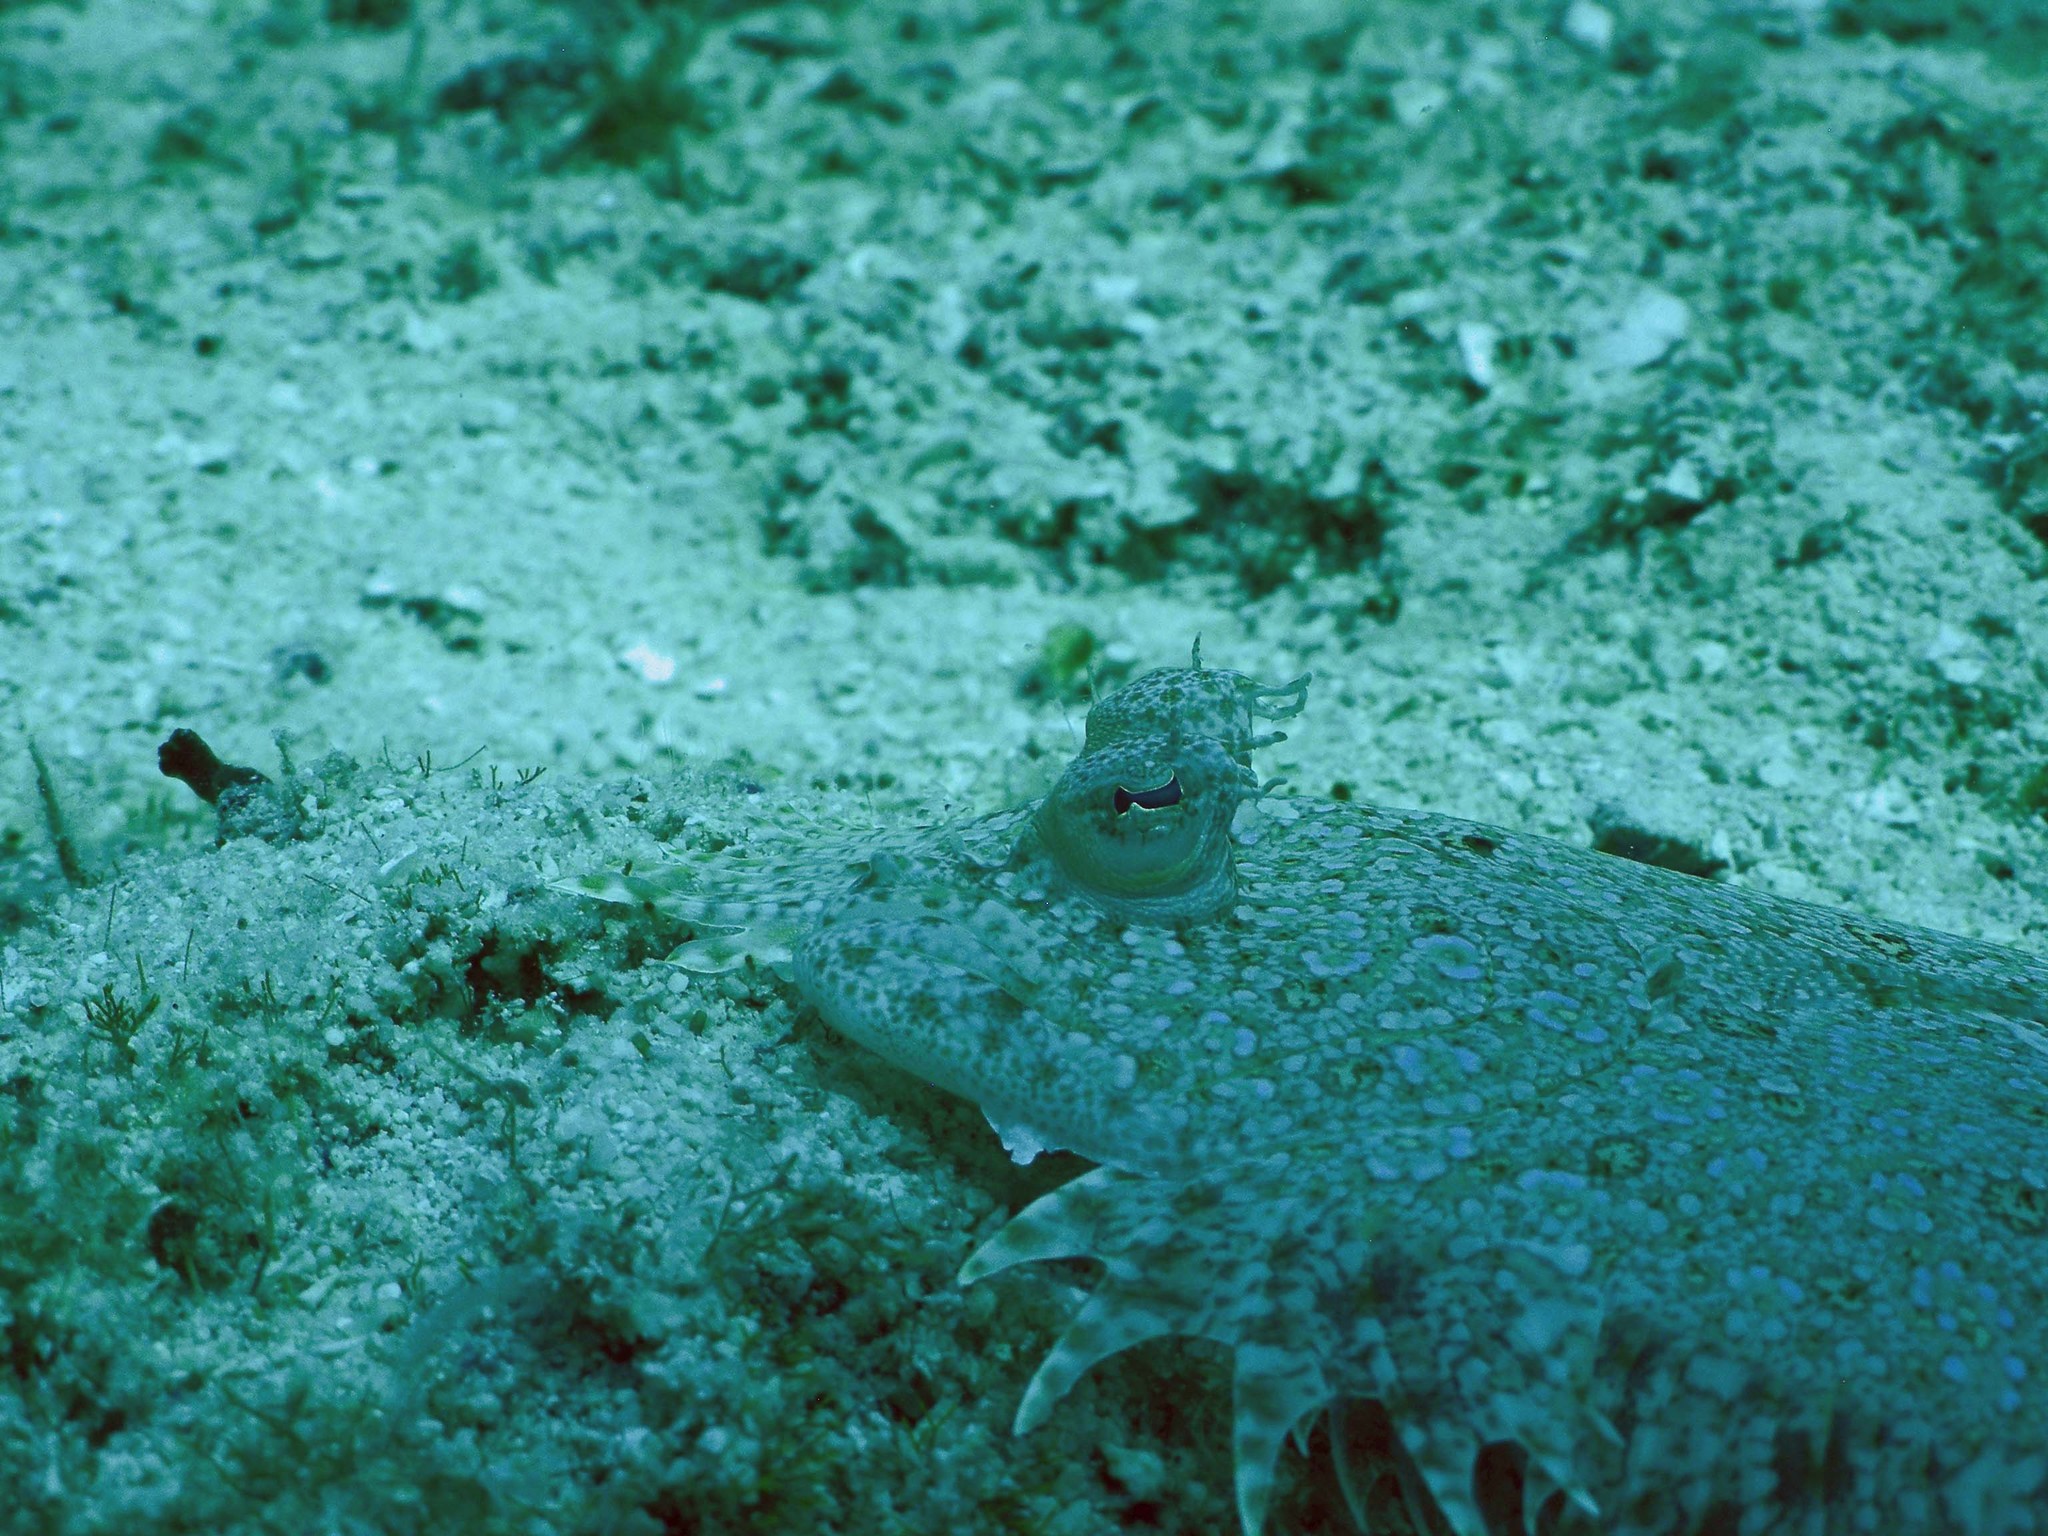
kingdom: Animalia
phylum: Chordata
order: Pleuronectiformes
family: Bothidae
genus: Bothus
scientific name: Bothus maculiferus
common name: Mottled flounder
